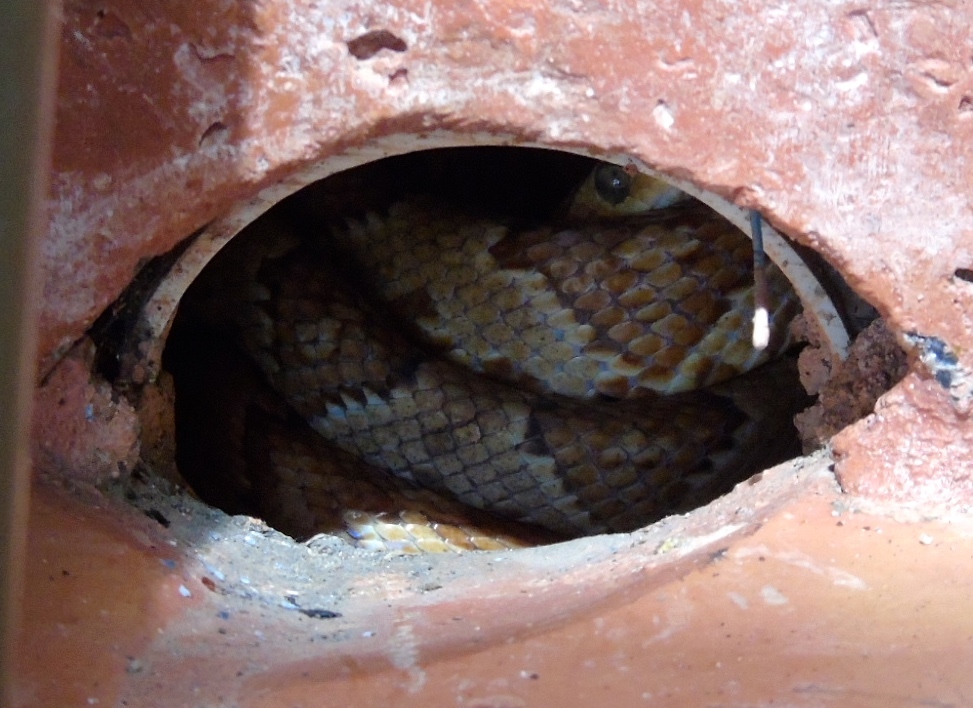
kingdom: Animalia
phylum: Chordata
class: Squamata
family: Colubridae
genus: Trimorphodon
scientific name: Trimorphodon paucimaculatus
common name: Sinaloan lyresnake
